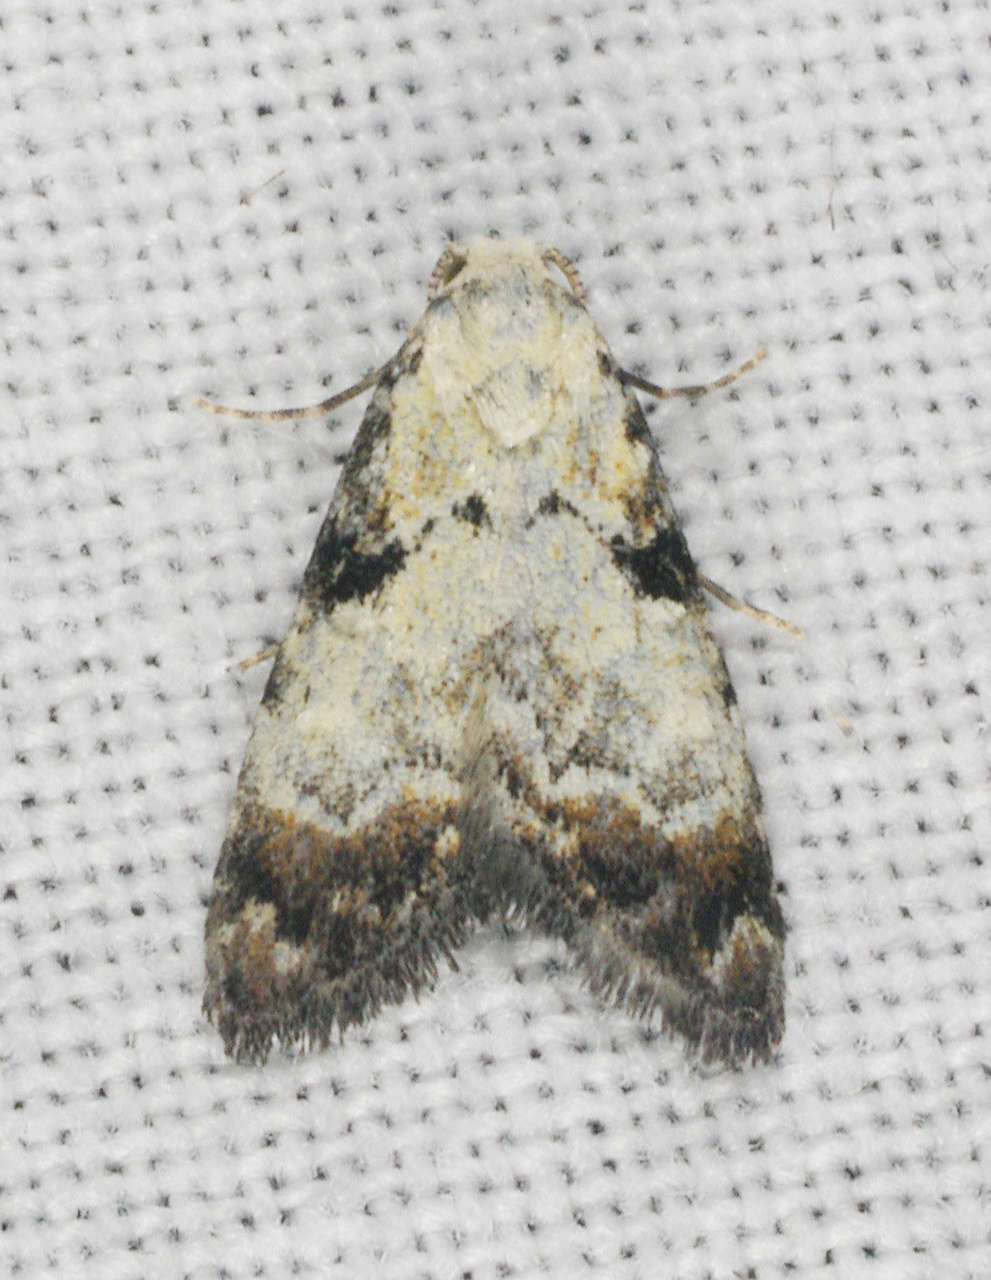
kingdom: Animalia
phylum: Arthropoda
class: Insecta
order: Lepidoptera
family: Nolidae
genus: Nola
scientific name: Nola semograpta
